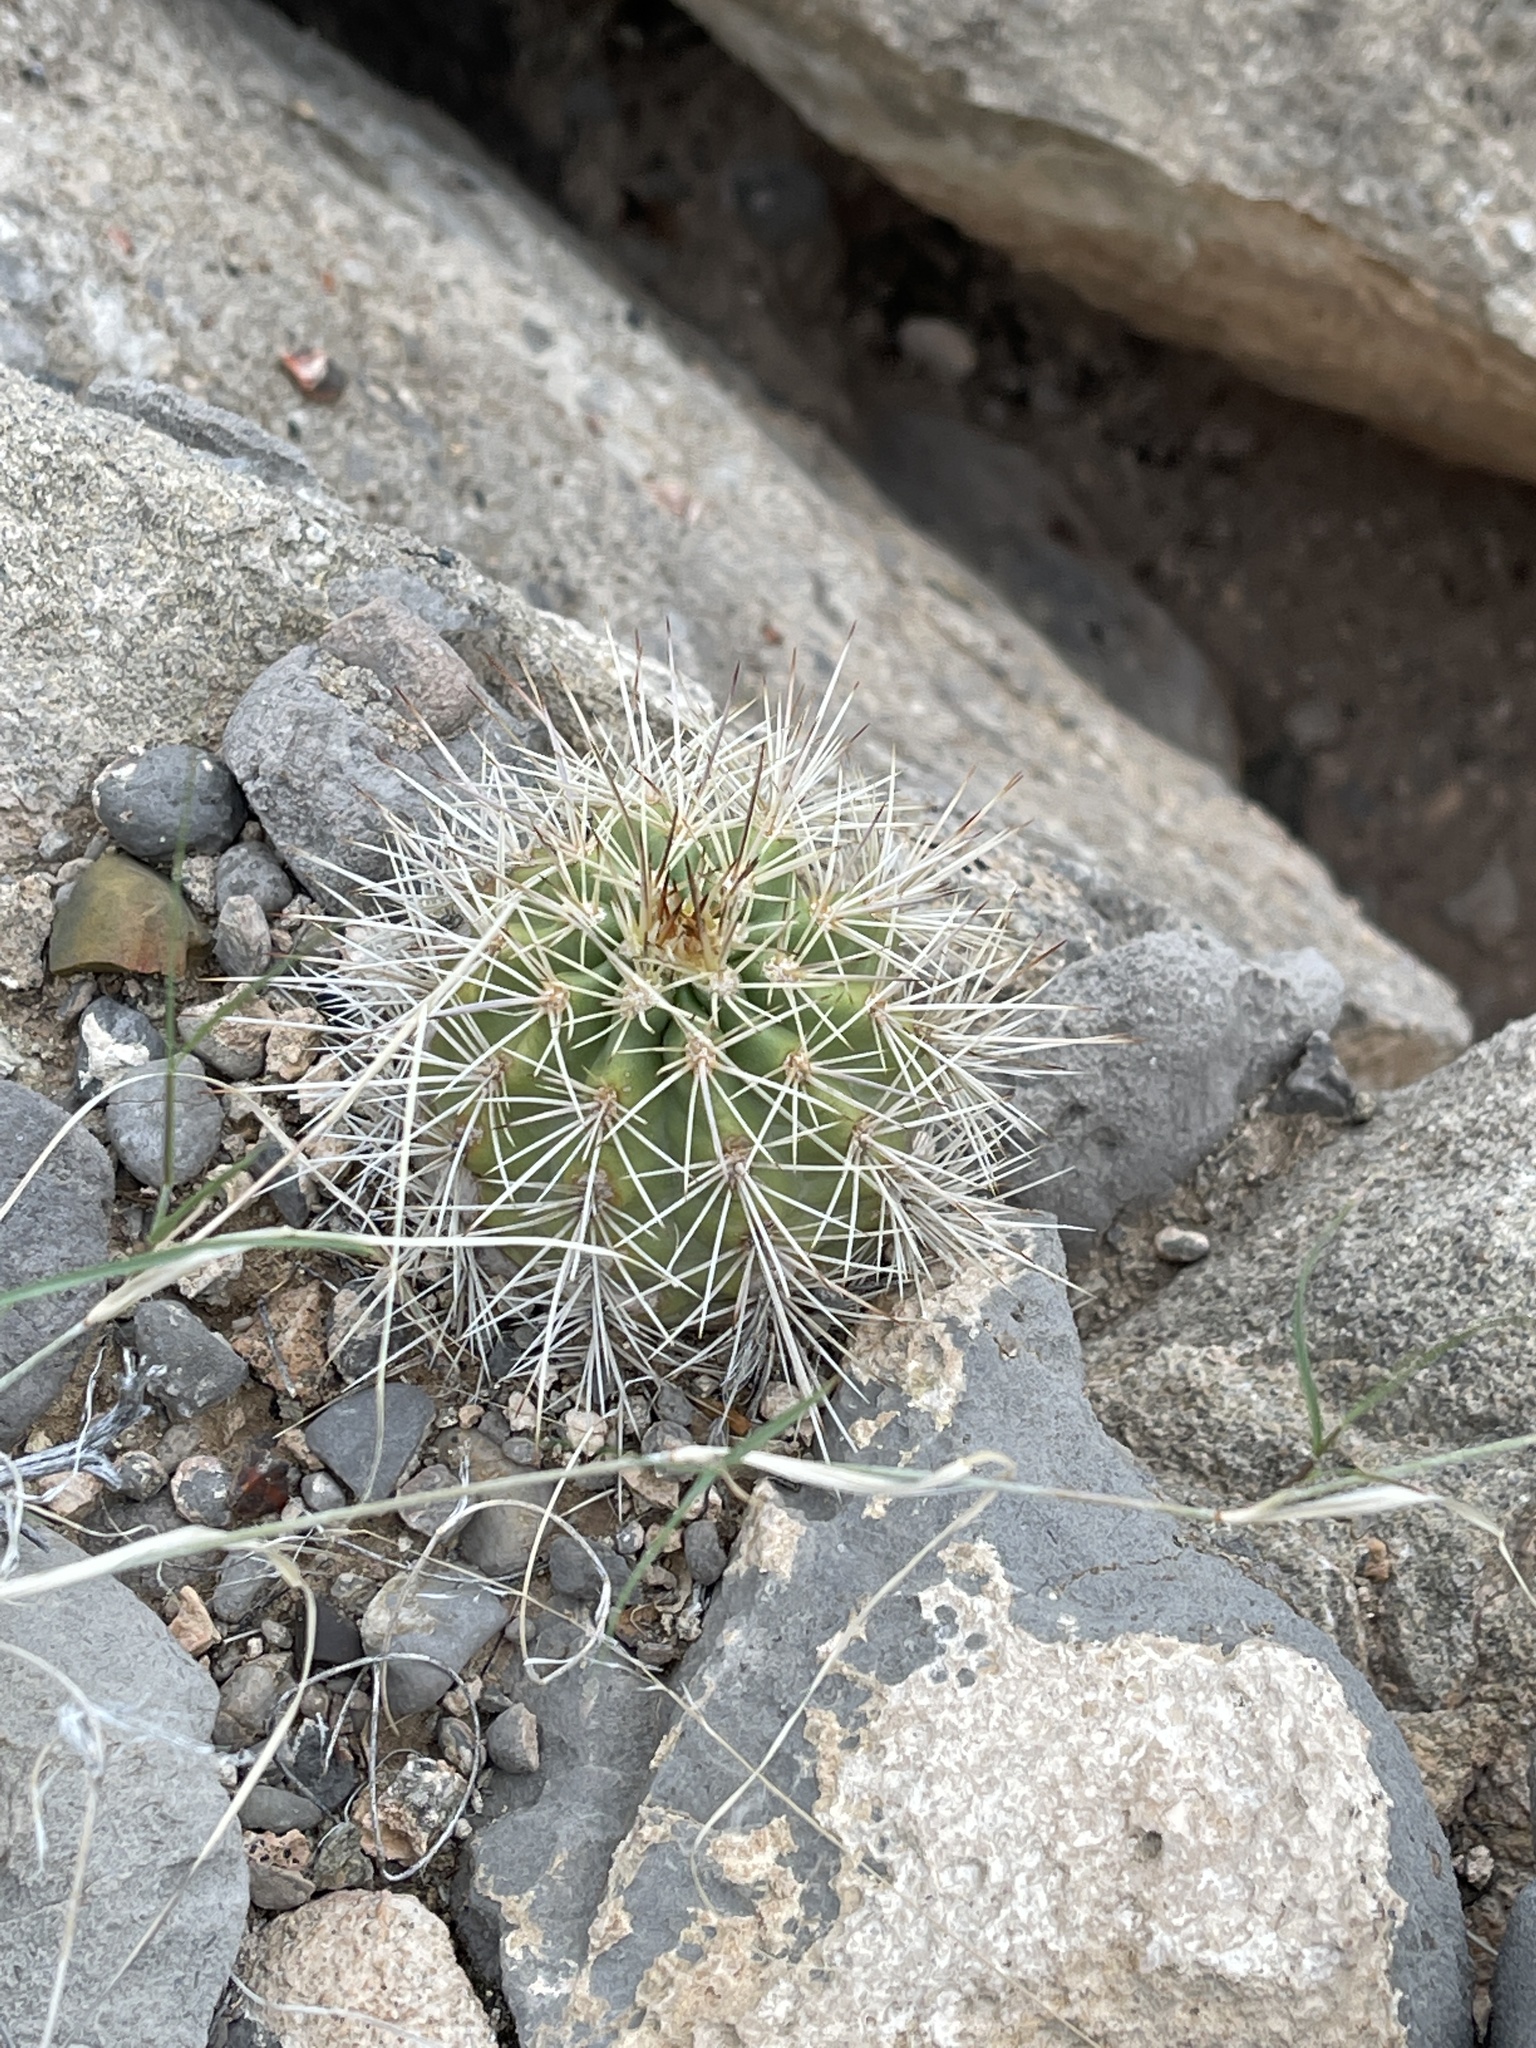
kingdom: Plantae
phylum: Tracheophyta
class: Magnoliopsida
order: Caryophyllales
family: Cactaceae
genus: Echinocereus
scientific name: Echinocereus coccineus
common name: Scarlet hedgehog cactus
